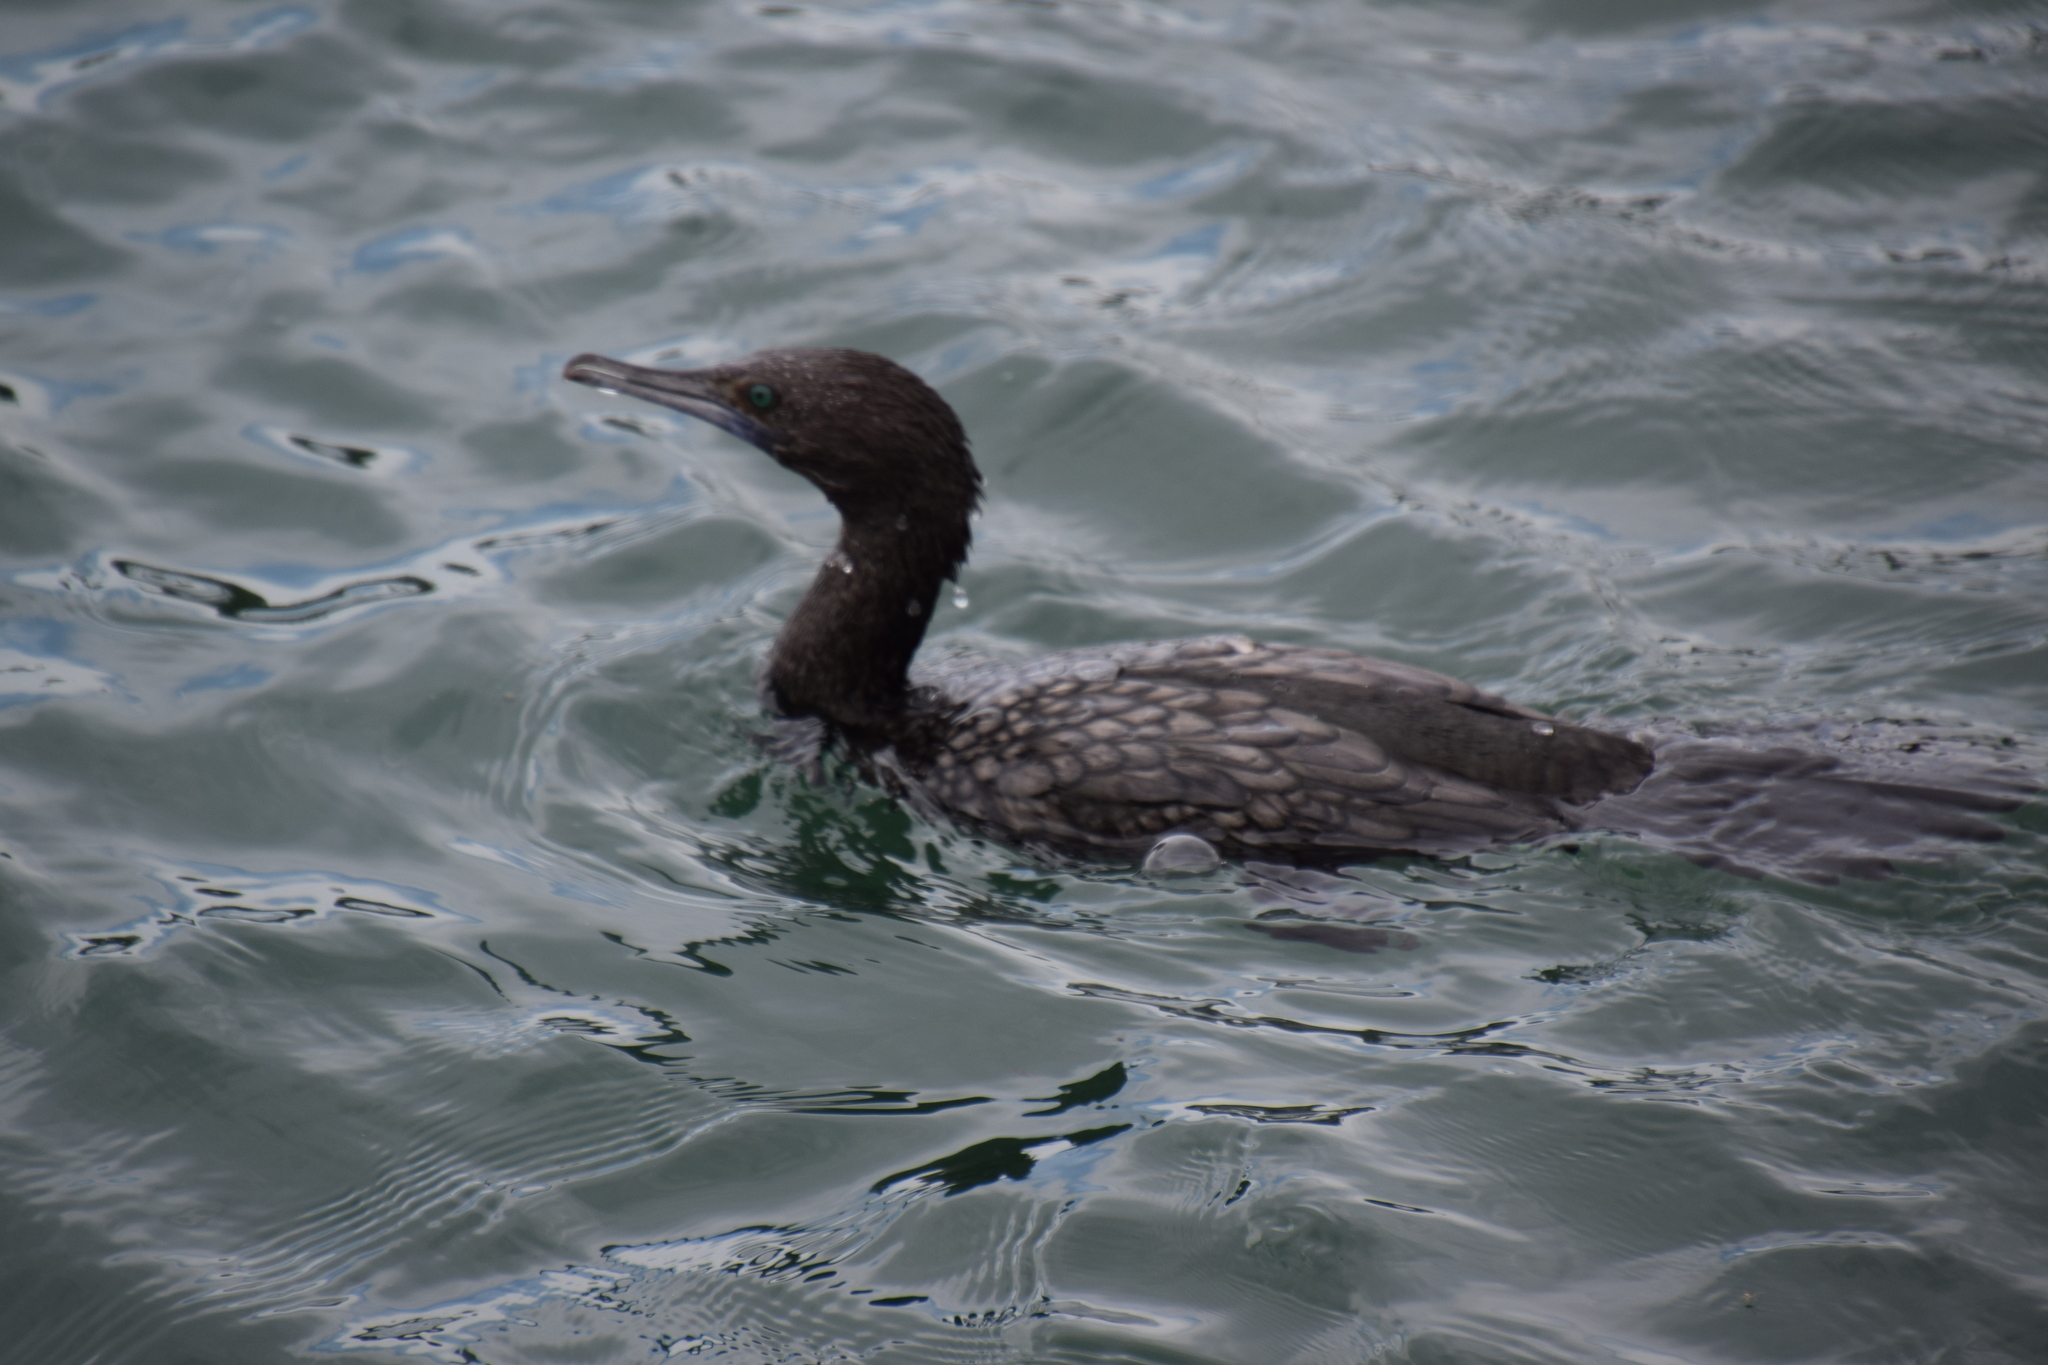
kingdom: Animalia
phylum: Chordata
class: Aves
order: Suliformes
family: Phalacrocoracidae
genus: Phalacrocorax
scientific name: Phalacrocorax sulcirostris
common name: Little black cormorant
